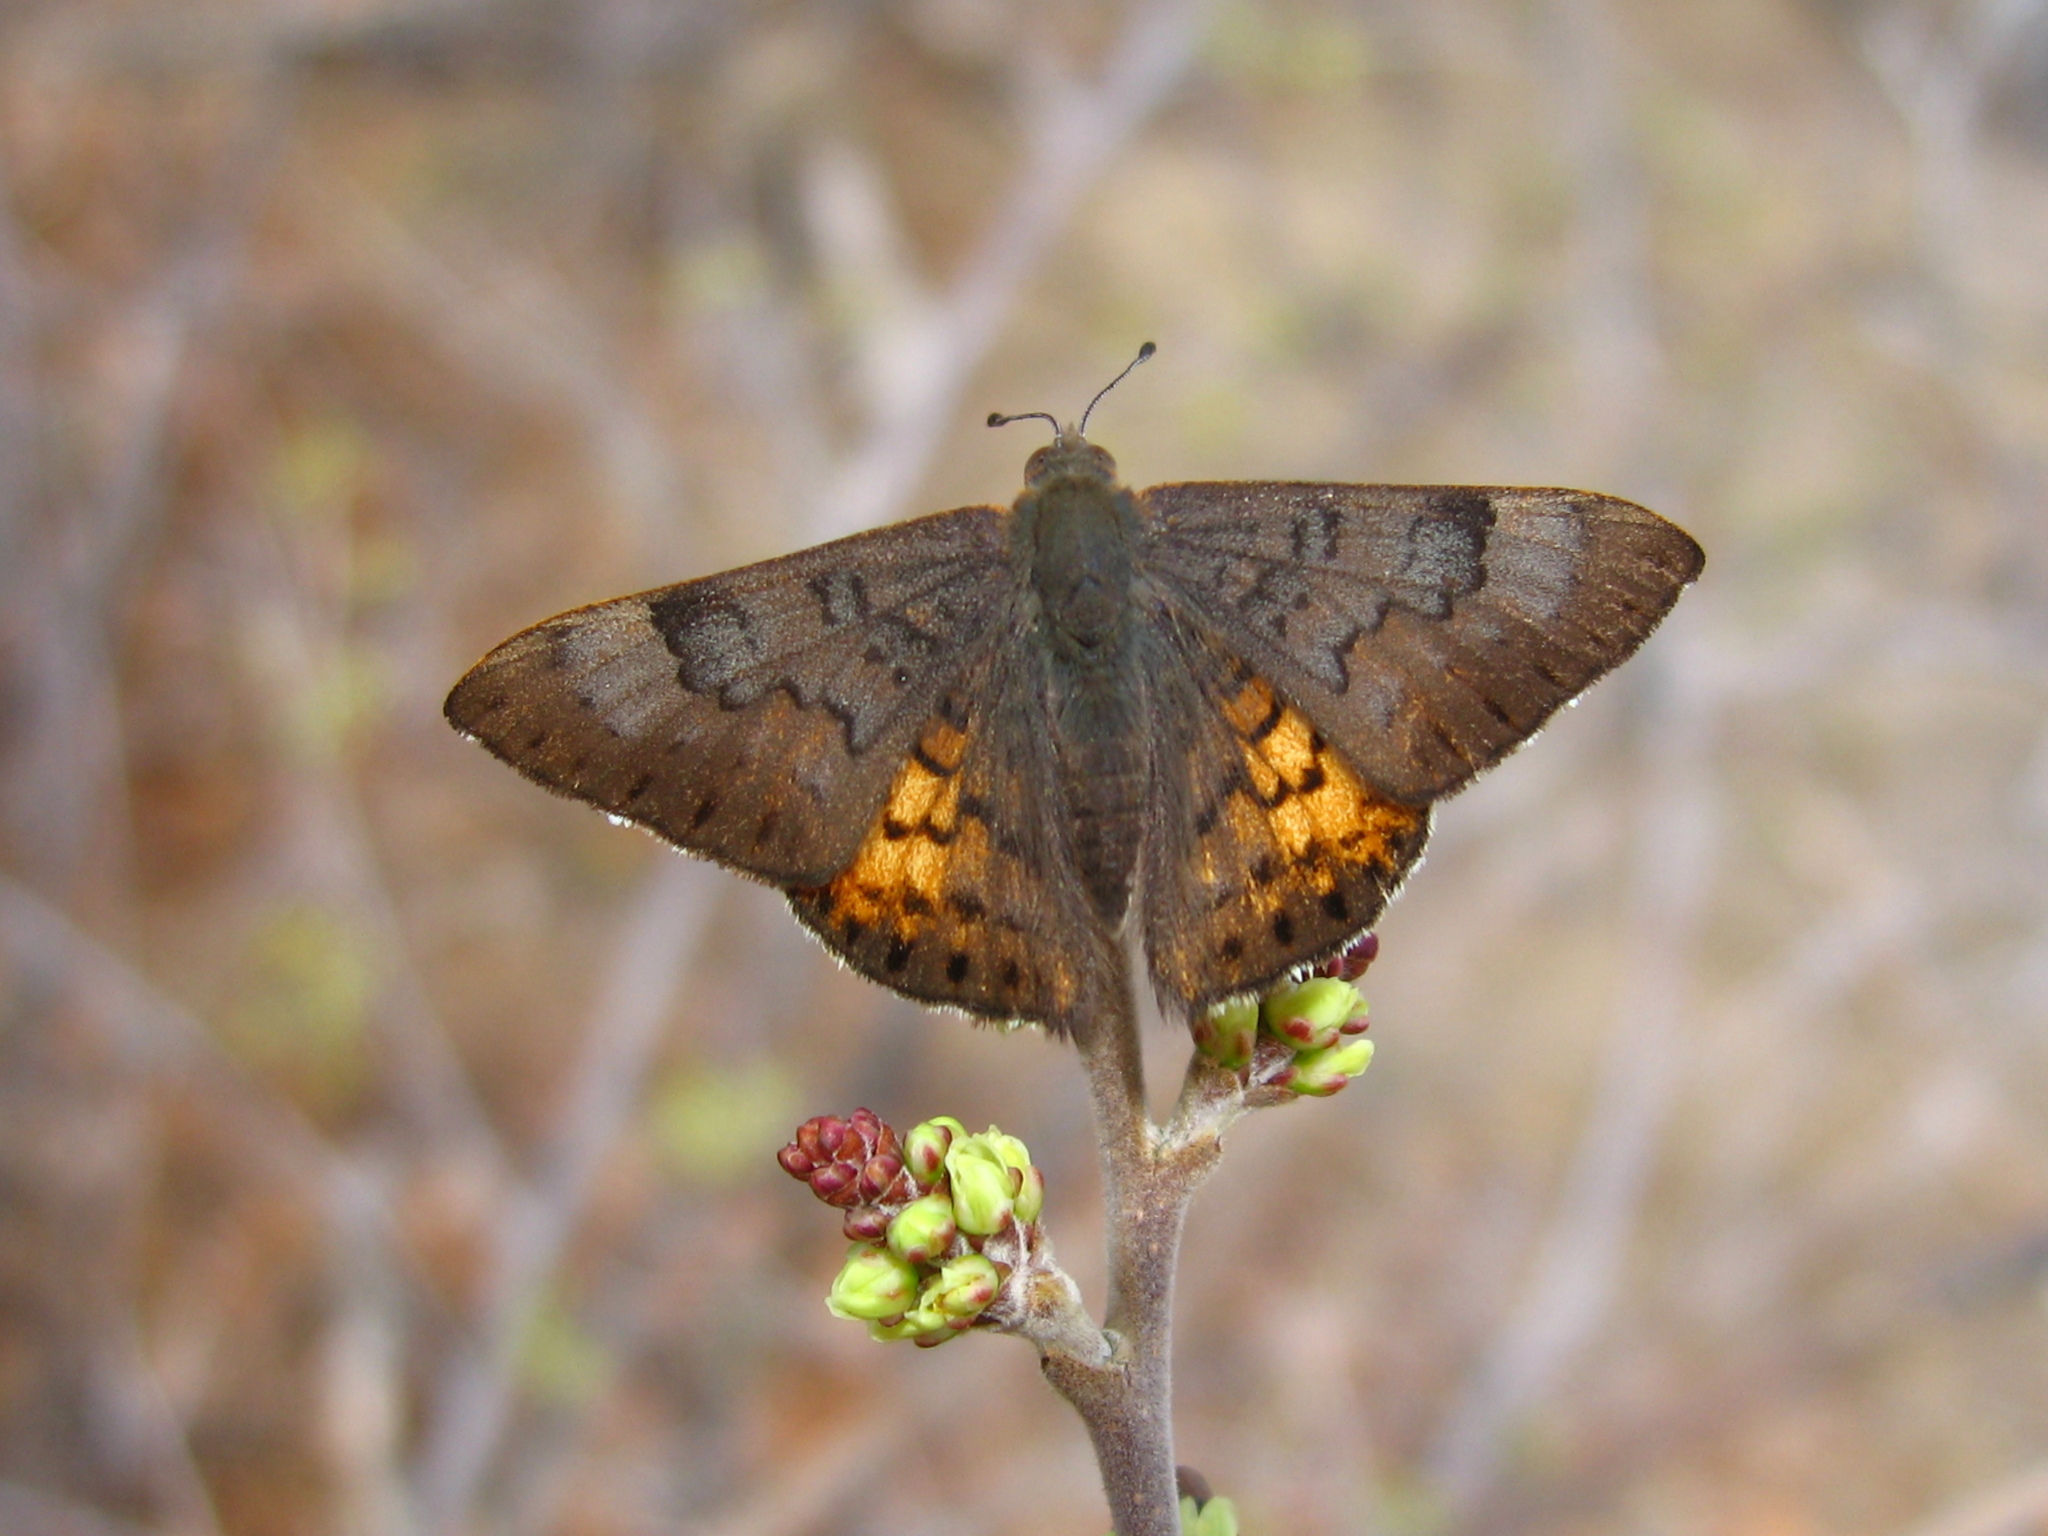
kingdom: Animalia
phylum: Arthropoda
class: Insecta
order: Lepidoptera
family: Riodinidae
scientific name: Riodinidae
